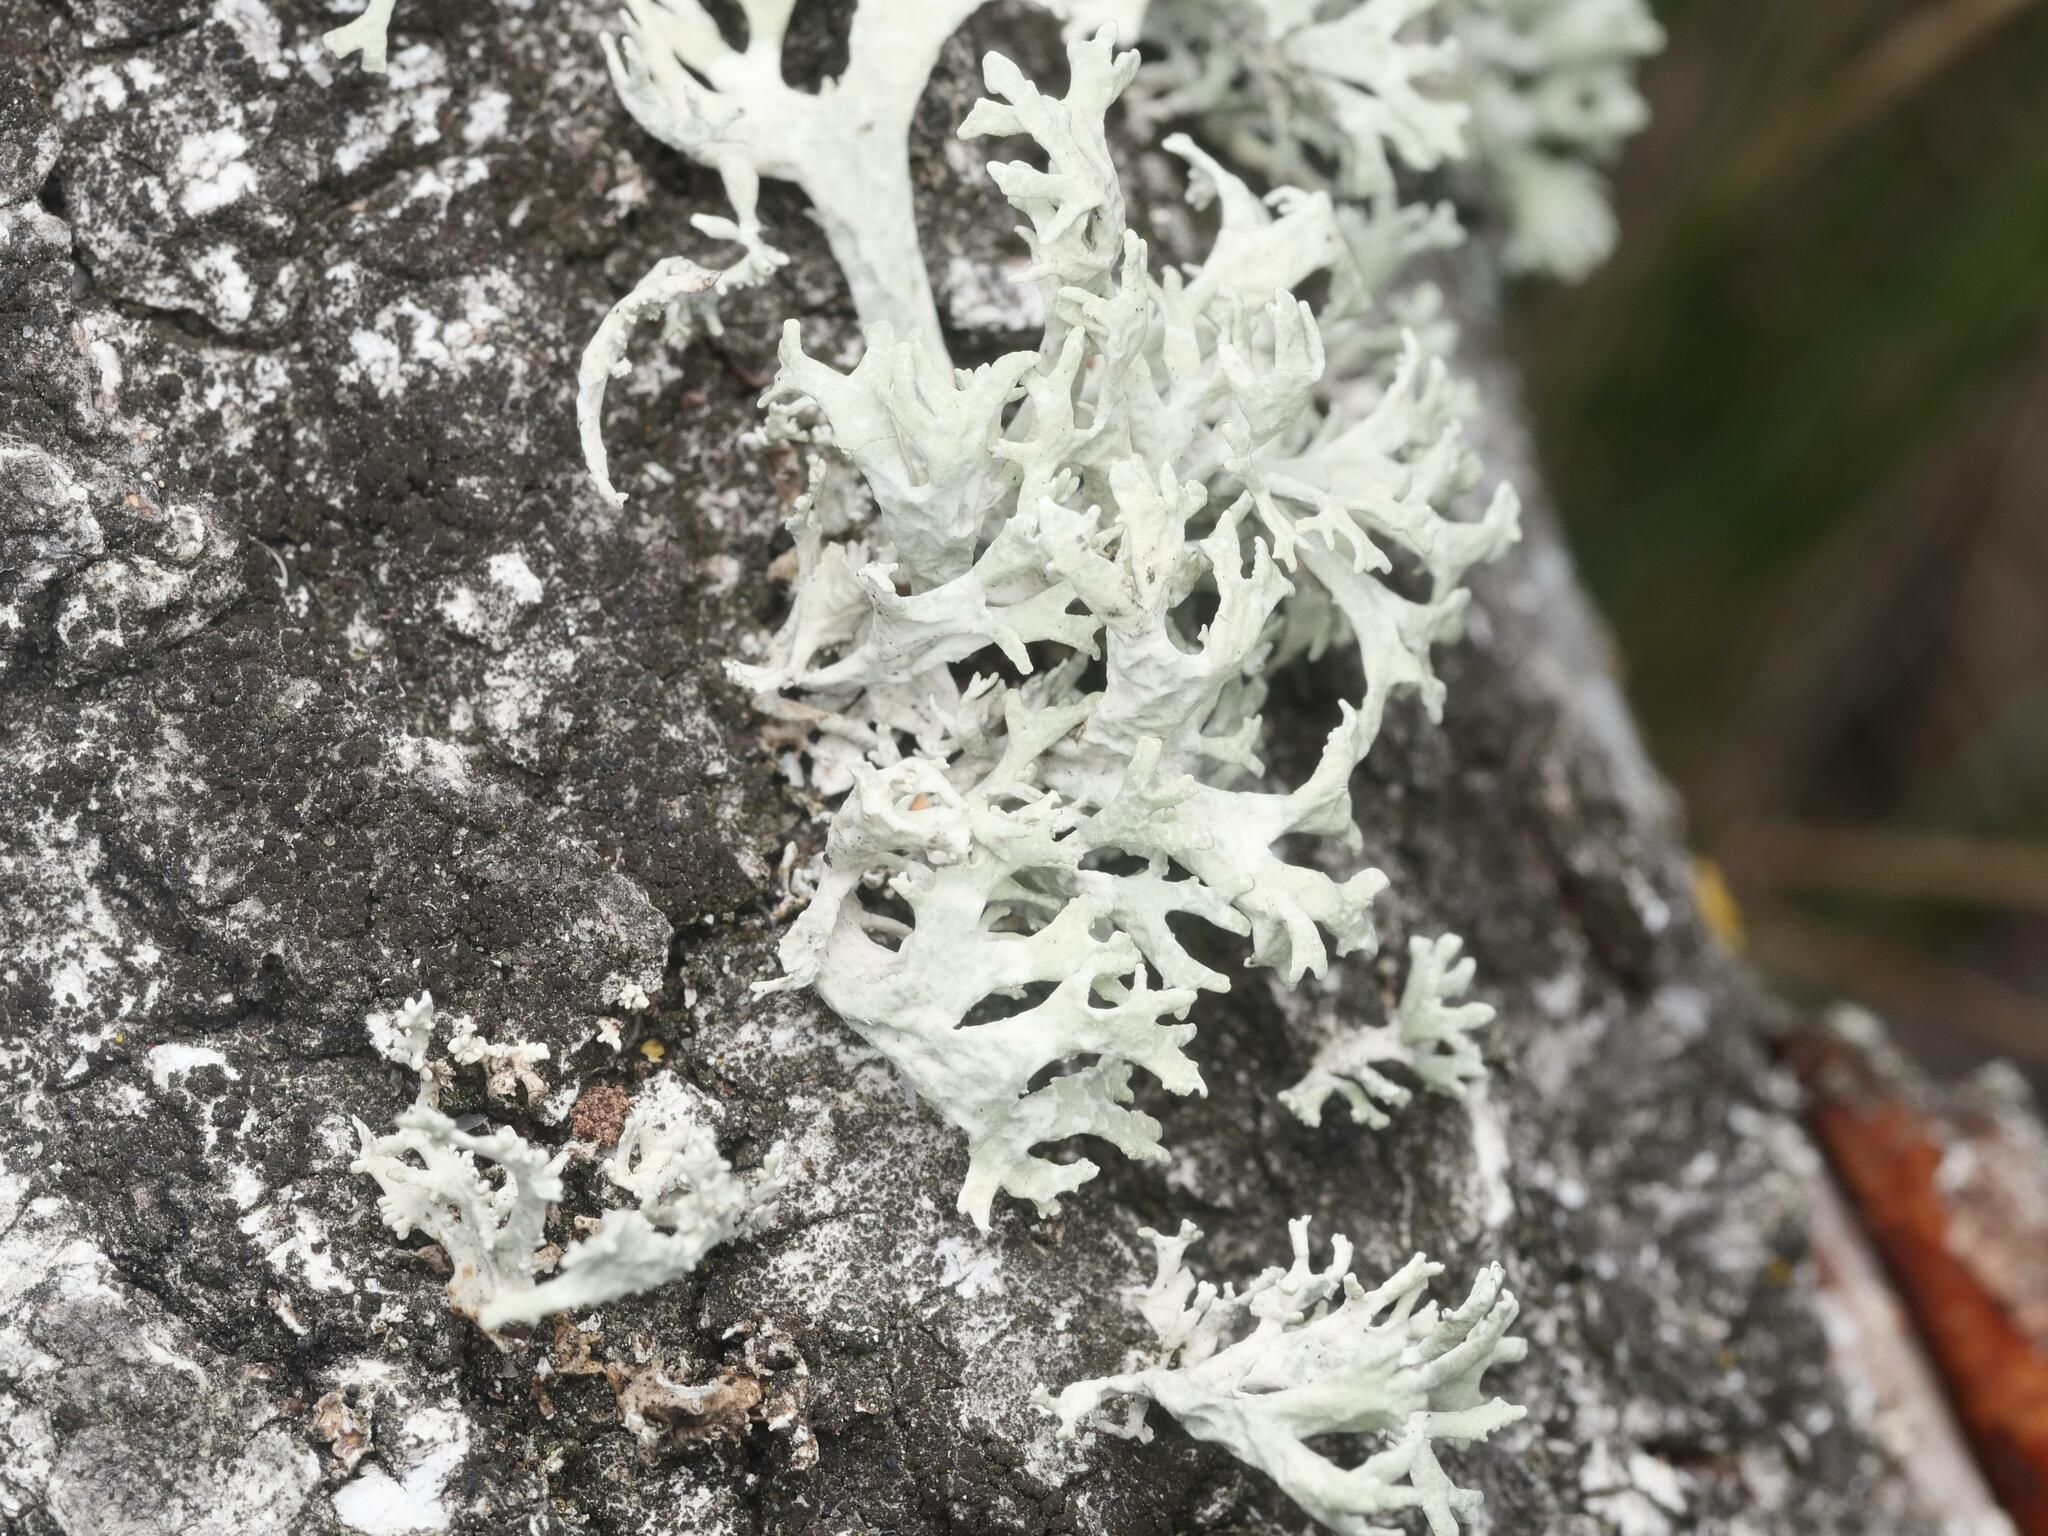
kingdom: Fungi
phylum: Ascomycota
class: Lecanoromycetes
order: Lecanorales
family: Parmeliaceae
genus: Evernia
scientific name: Evernia prunastri
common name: Oak moss
